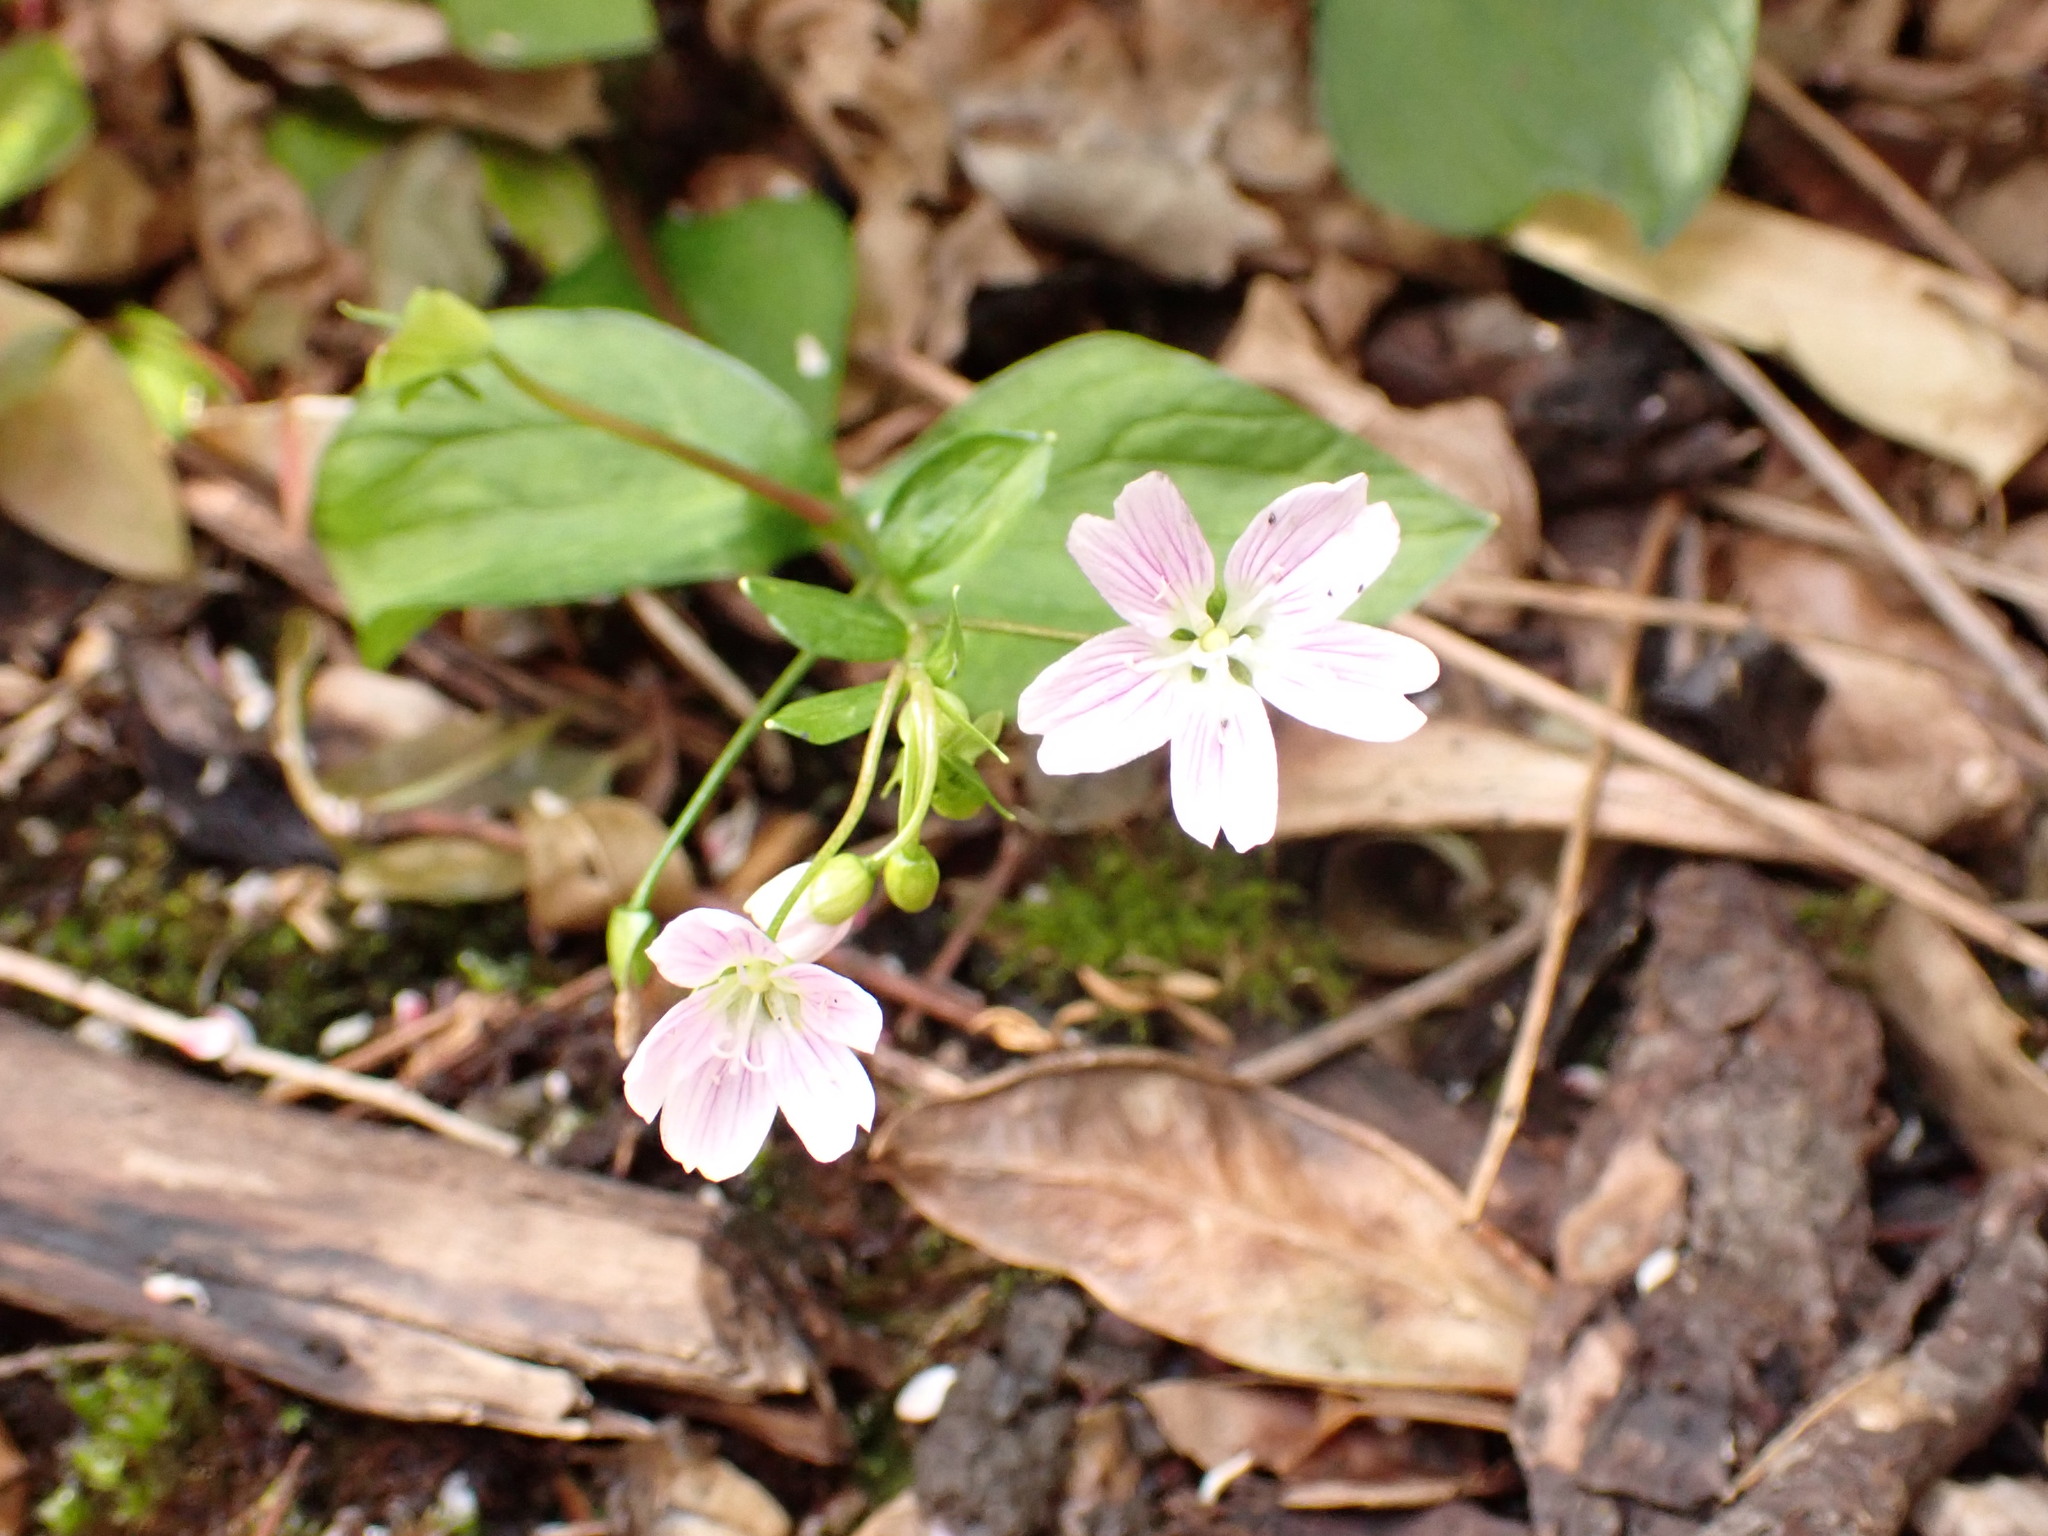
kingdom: Plantae
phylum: Tracheophyta
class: Magnoliopsida
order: Caryophyllales
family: Montiaceae
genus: Claytonia
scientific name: Claytonia sibirica
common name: Pink purslane
